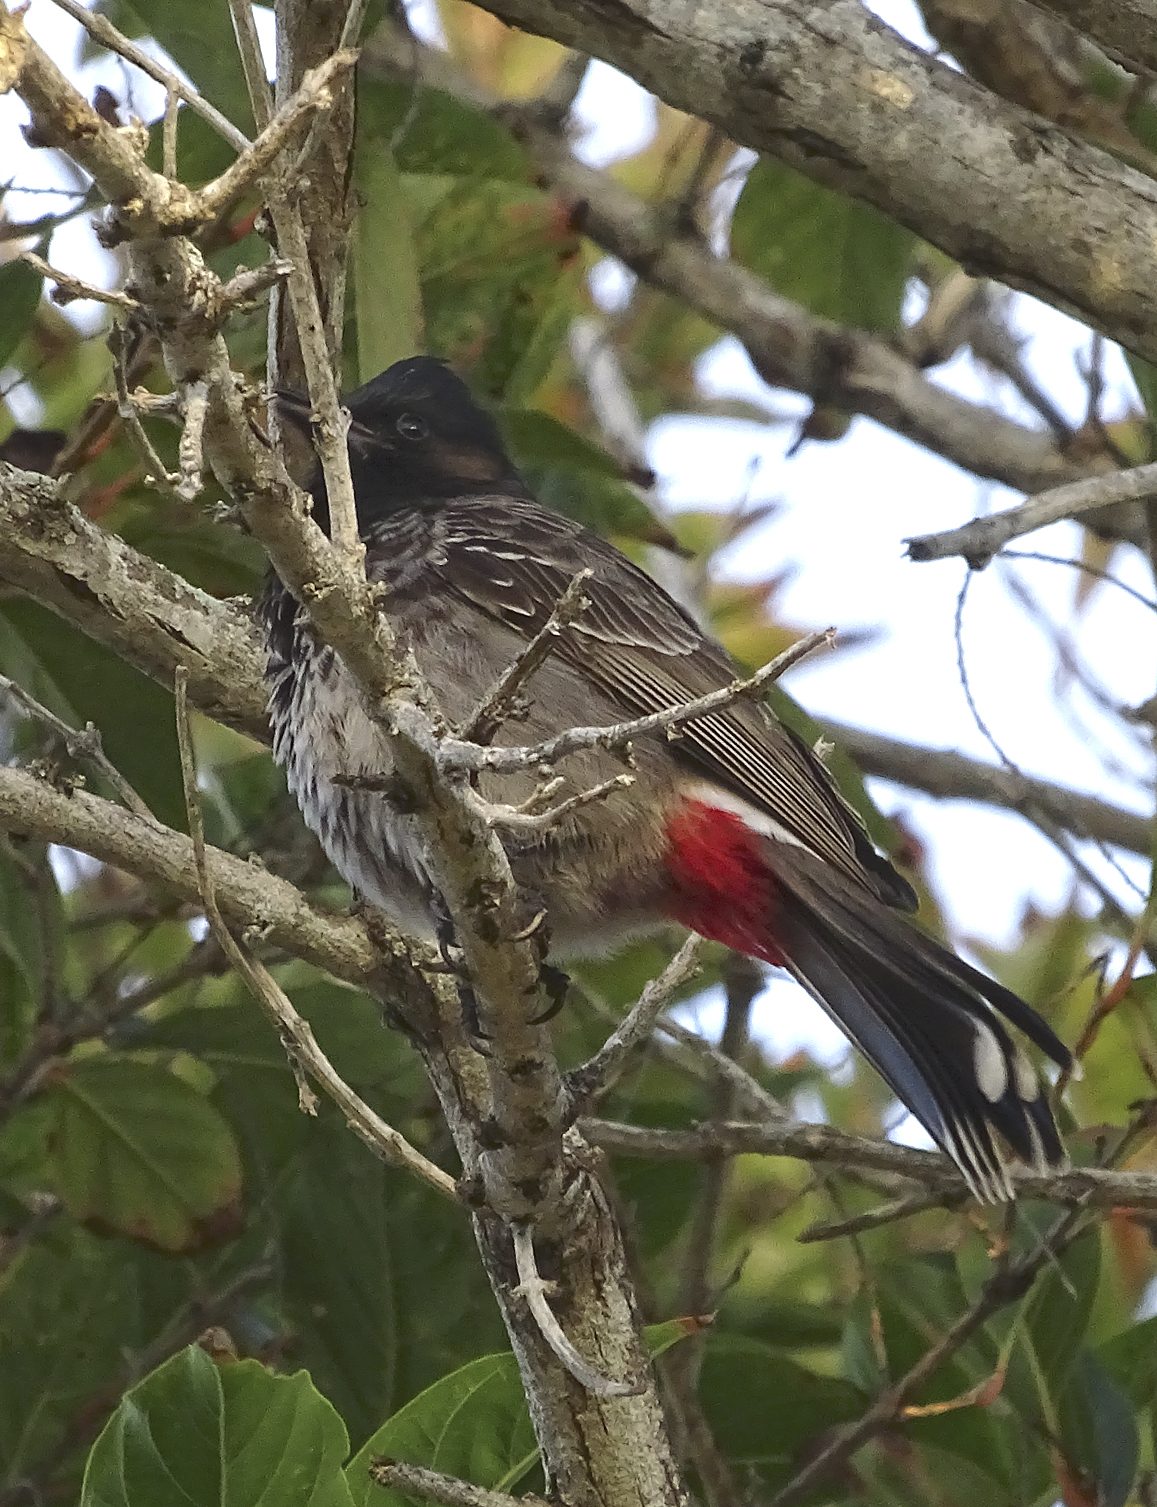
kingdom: Animalia
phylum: Chordata
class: Aves
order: Passeriformes
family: Pycnonotidae
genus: Pycnonotus
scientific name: Pycnonotus cafer
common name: Red-vented bulbul
